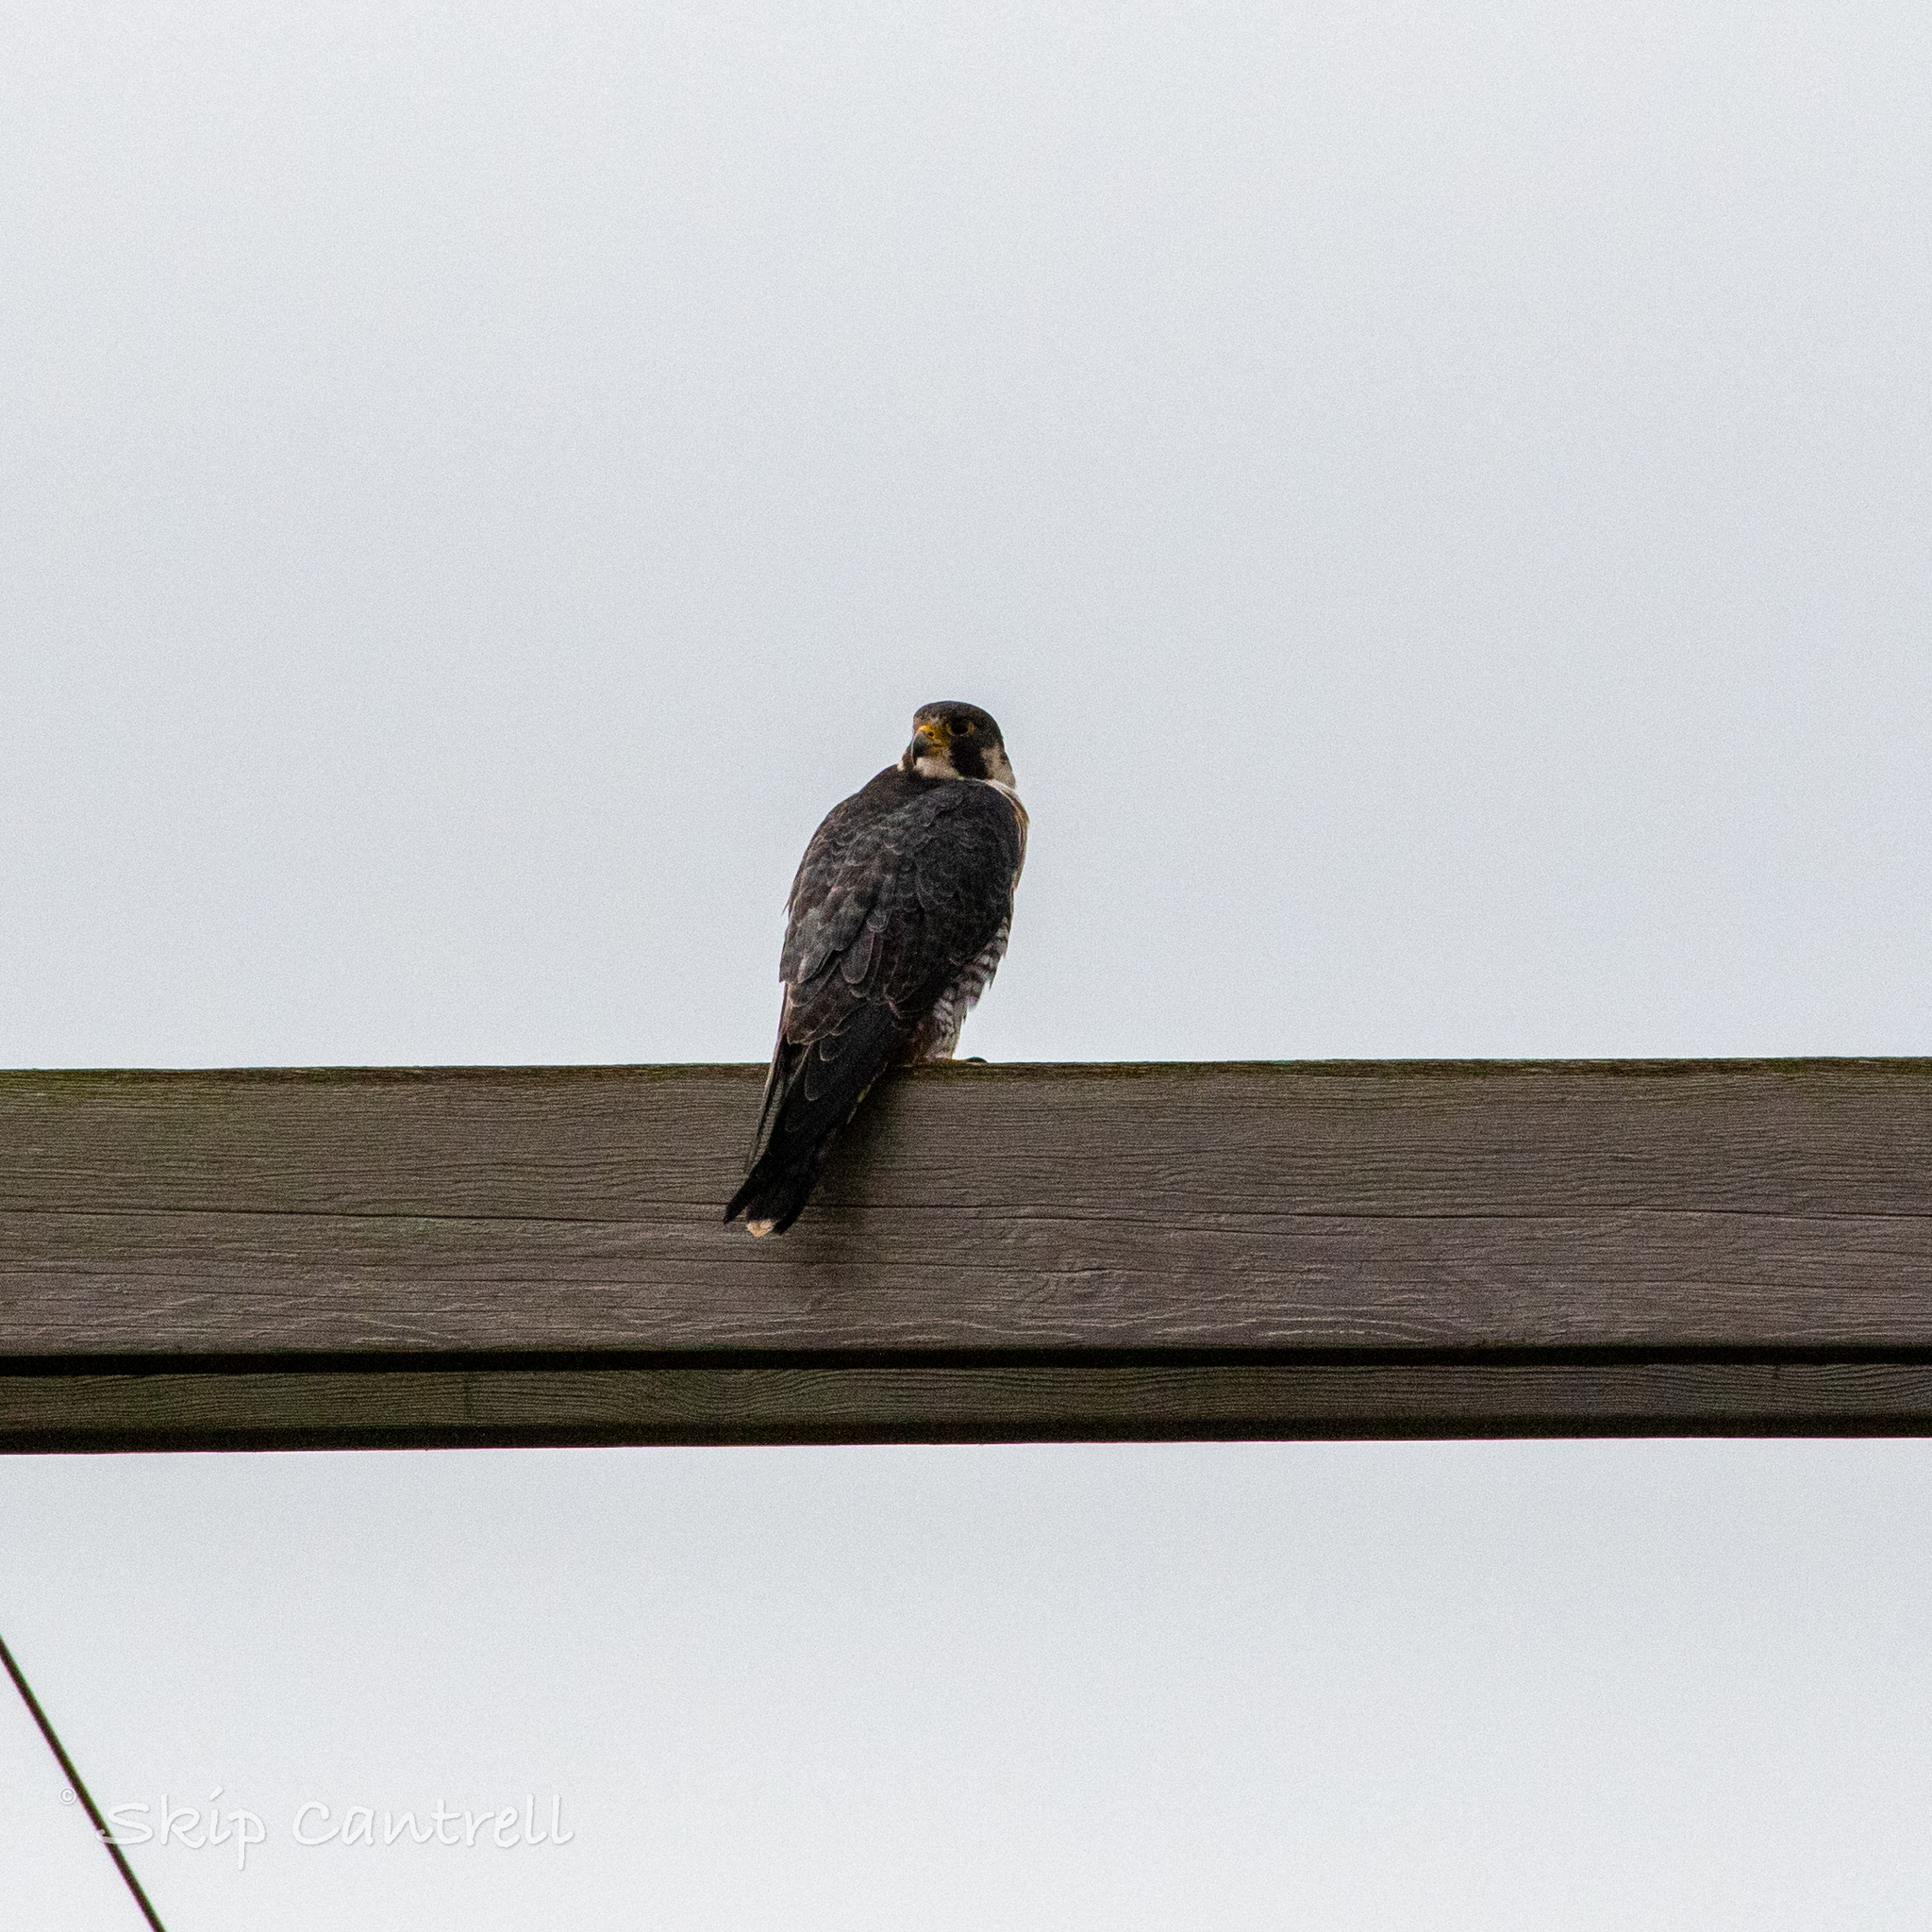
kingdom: Animalia
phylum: Chordata
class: Aves
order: Falconiformes
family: Falconidae
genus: Falco
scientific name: Falco peregrinus
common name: Peregrine falcon
